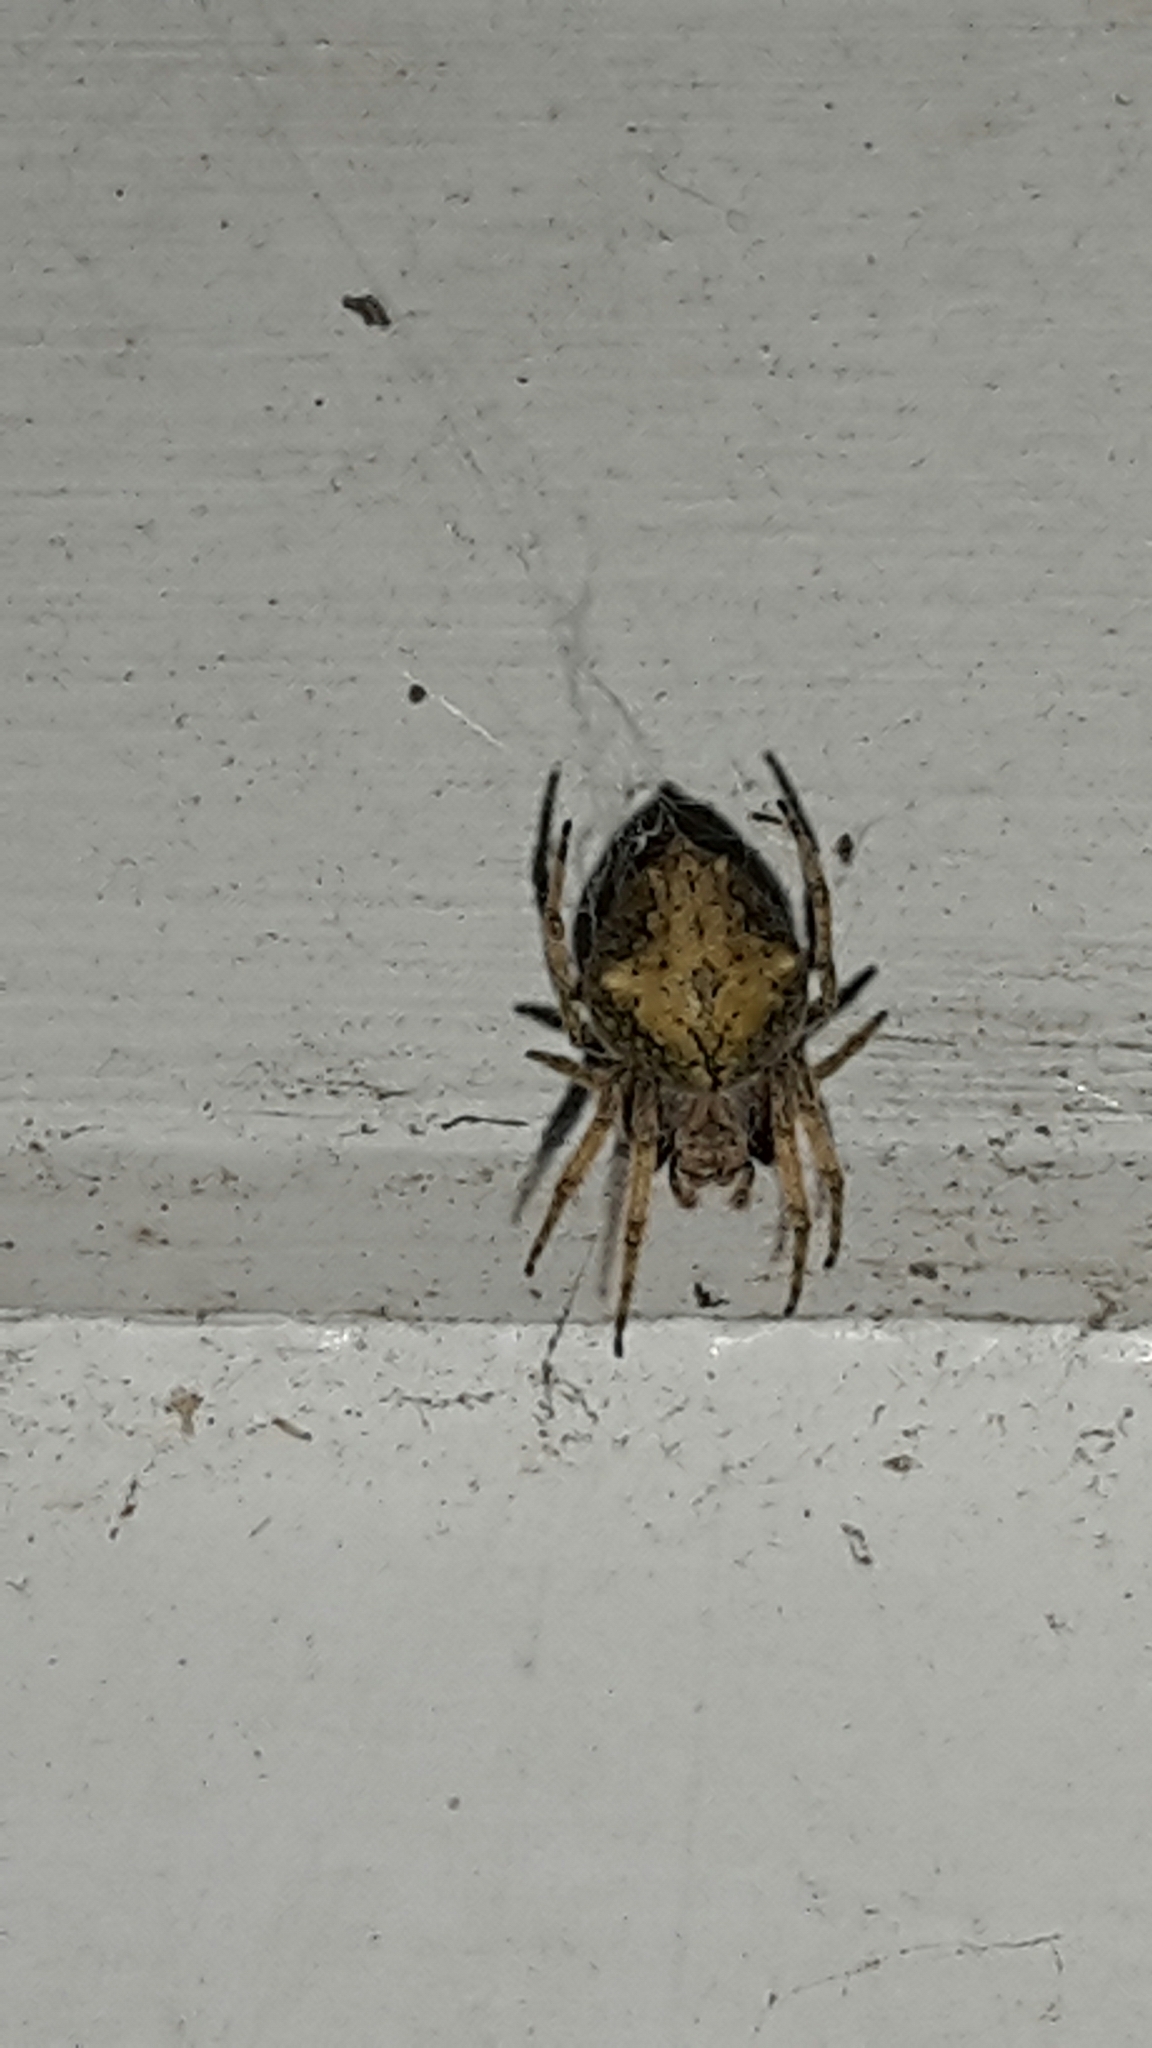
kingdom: Animalia
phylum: Arthropoda
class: Arachnida
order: Araneae
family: Araneidae
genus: Eriophora
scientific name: Eriophora pustulosa
